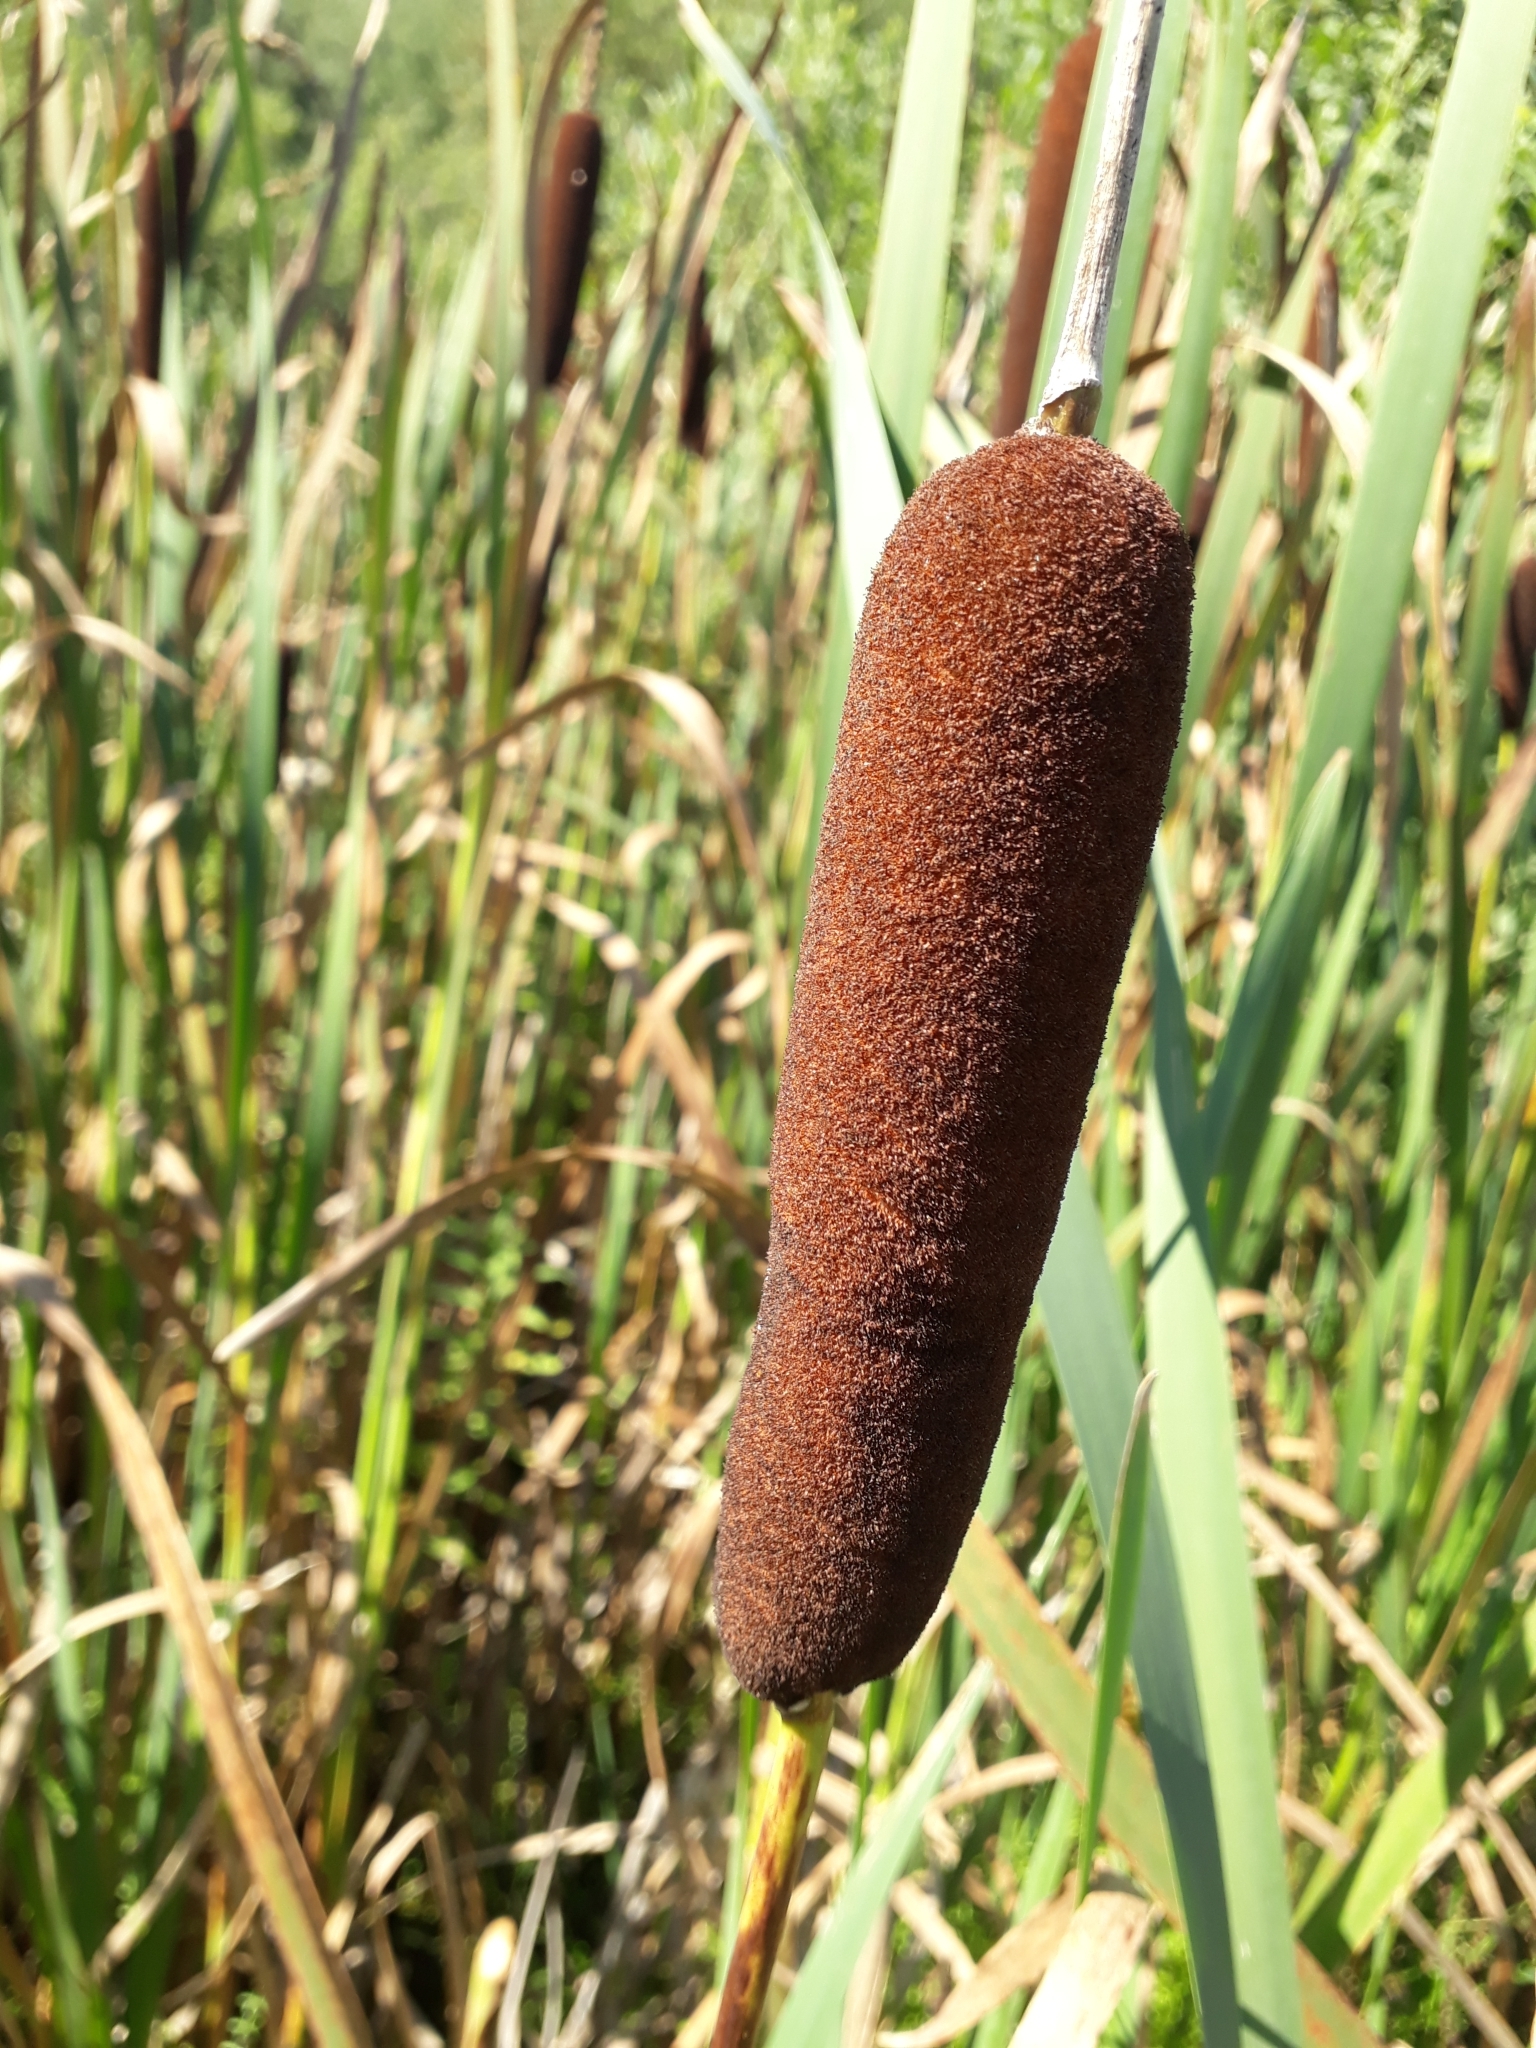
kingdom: Plantae
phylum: Tracheophyta
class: Liliopsida
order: Poales
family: Typhaceae
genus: Typha
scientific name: Typha latifolia
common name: Broadleaf cattail
